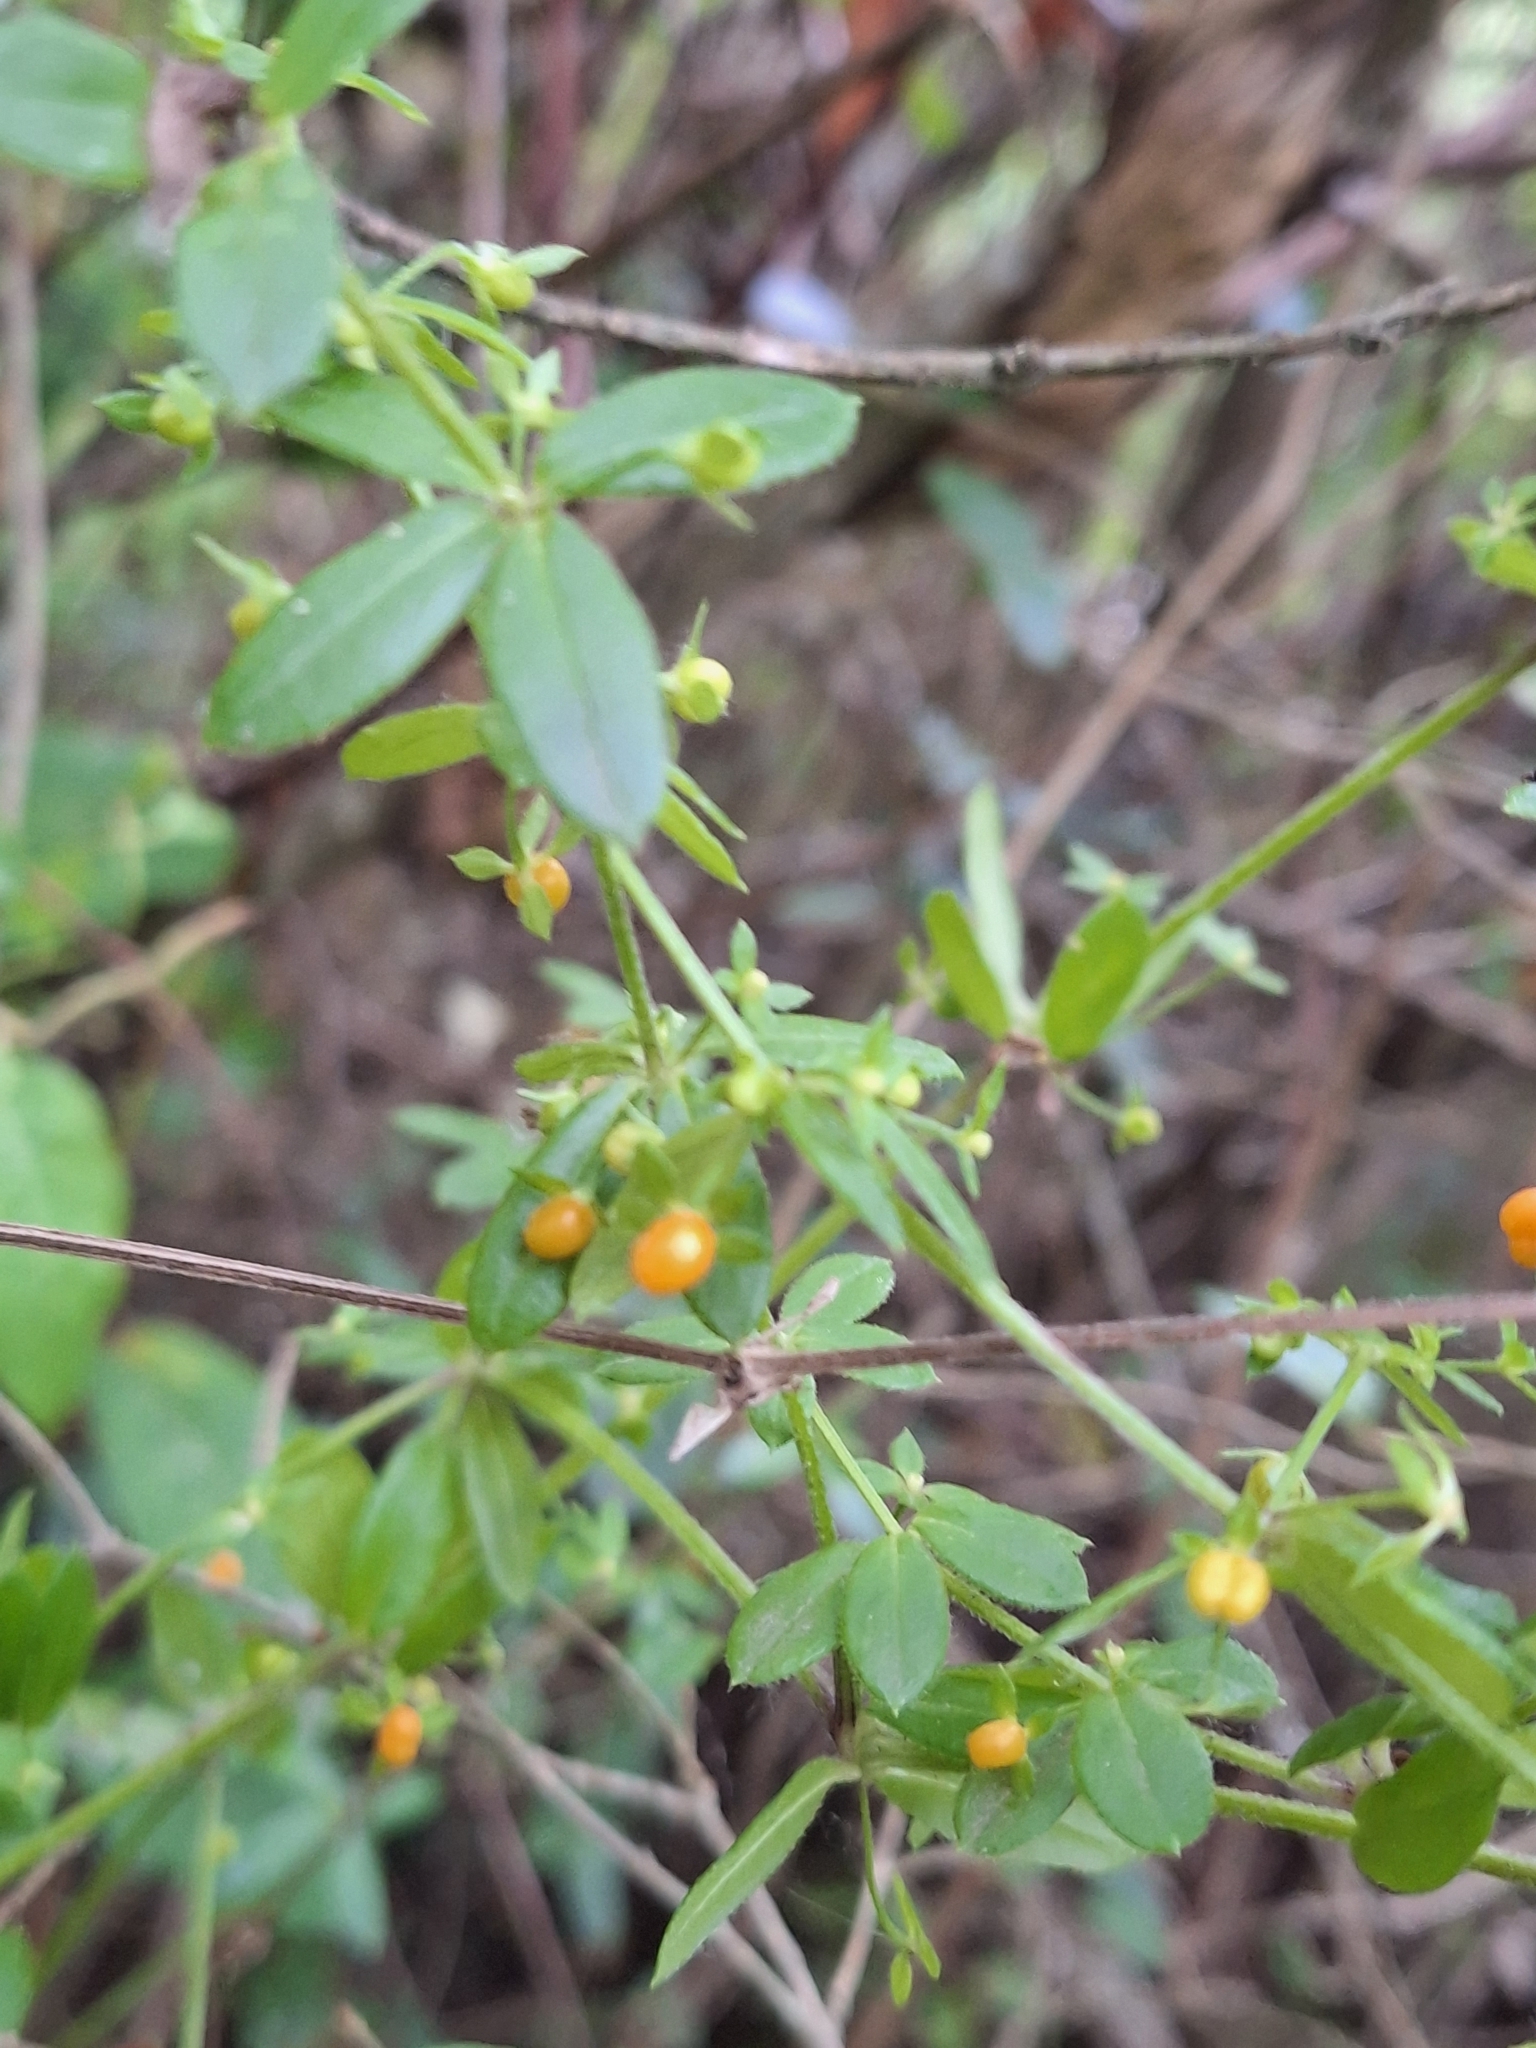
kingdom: Plantae
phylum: Tracheophyta
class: Magnoliopsida
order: Gentianales
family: Rubiaceae
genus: Galium
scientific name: Galium hypocarpium
